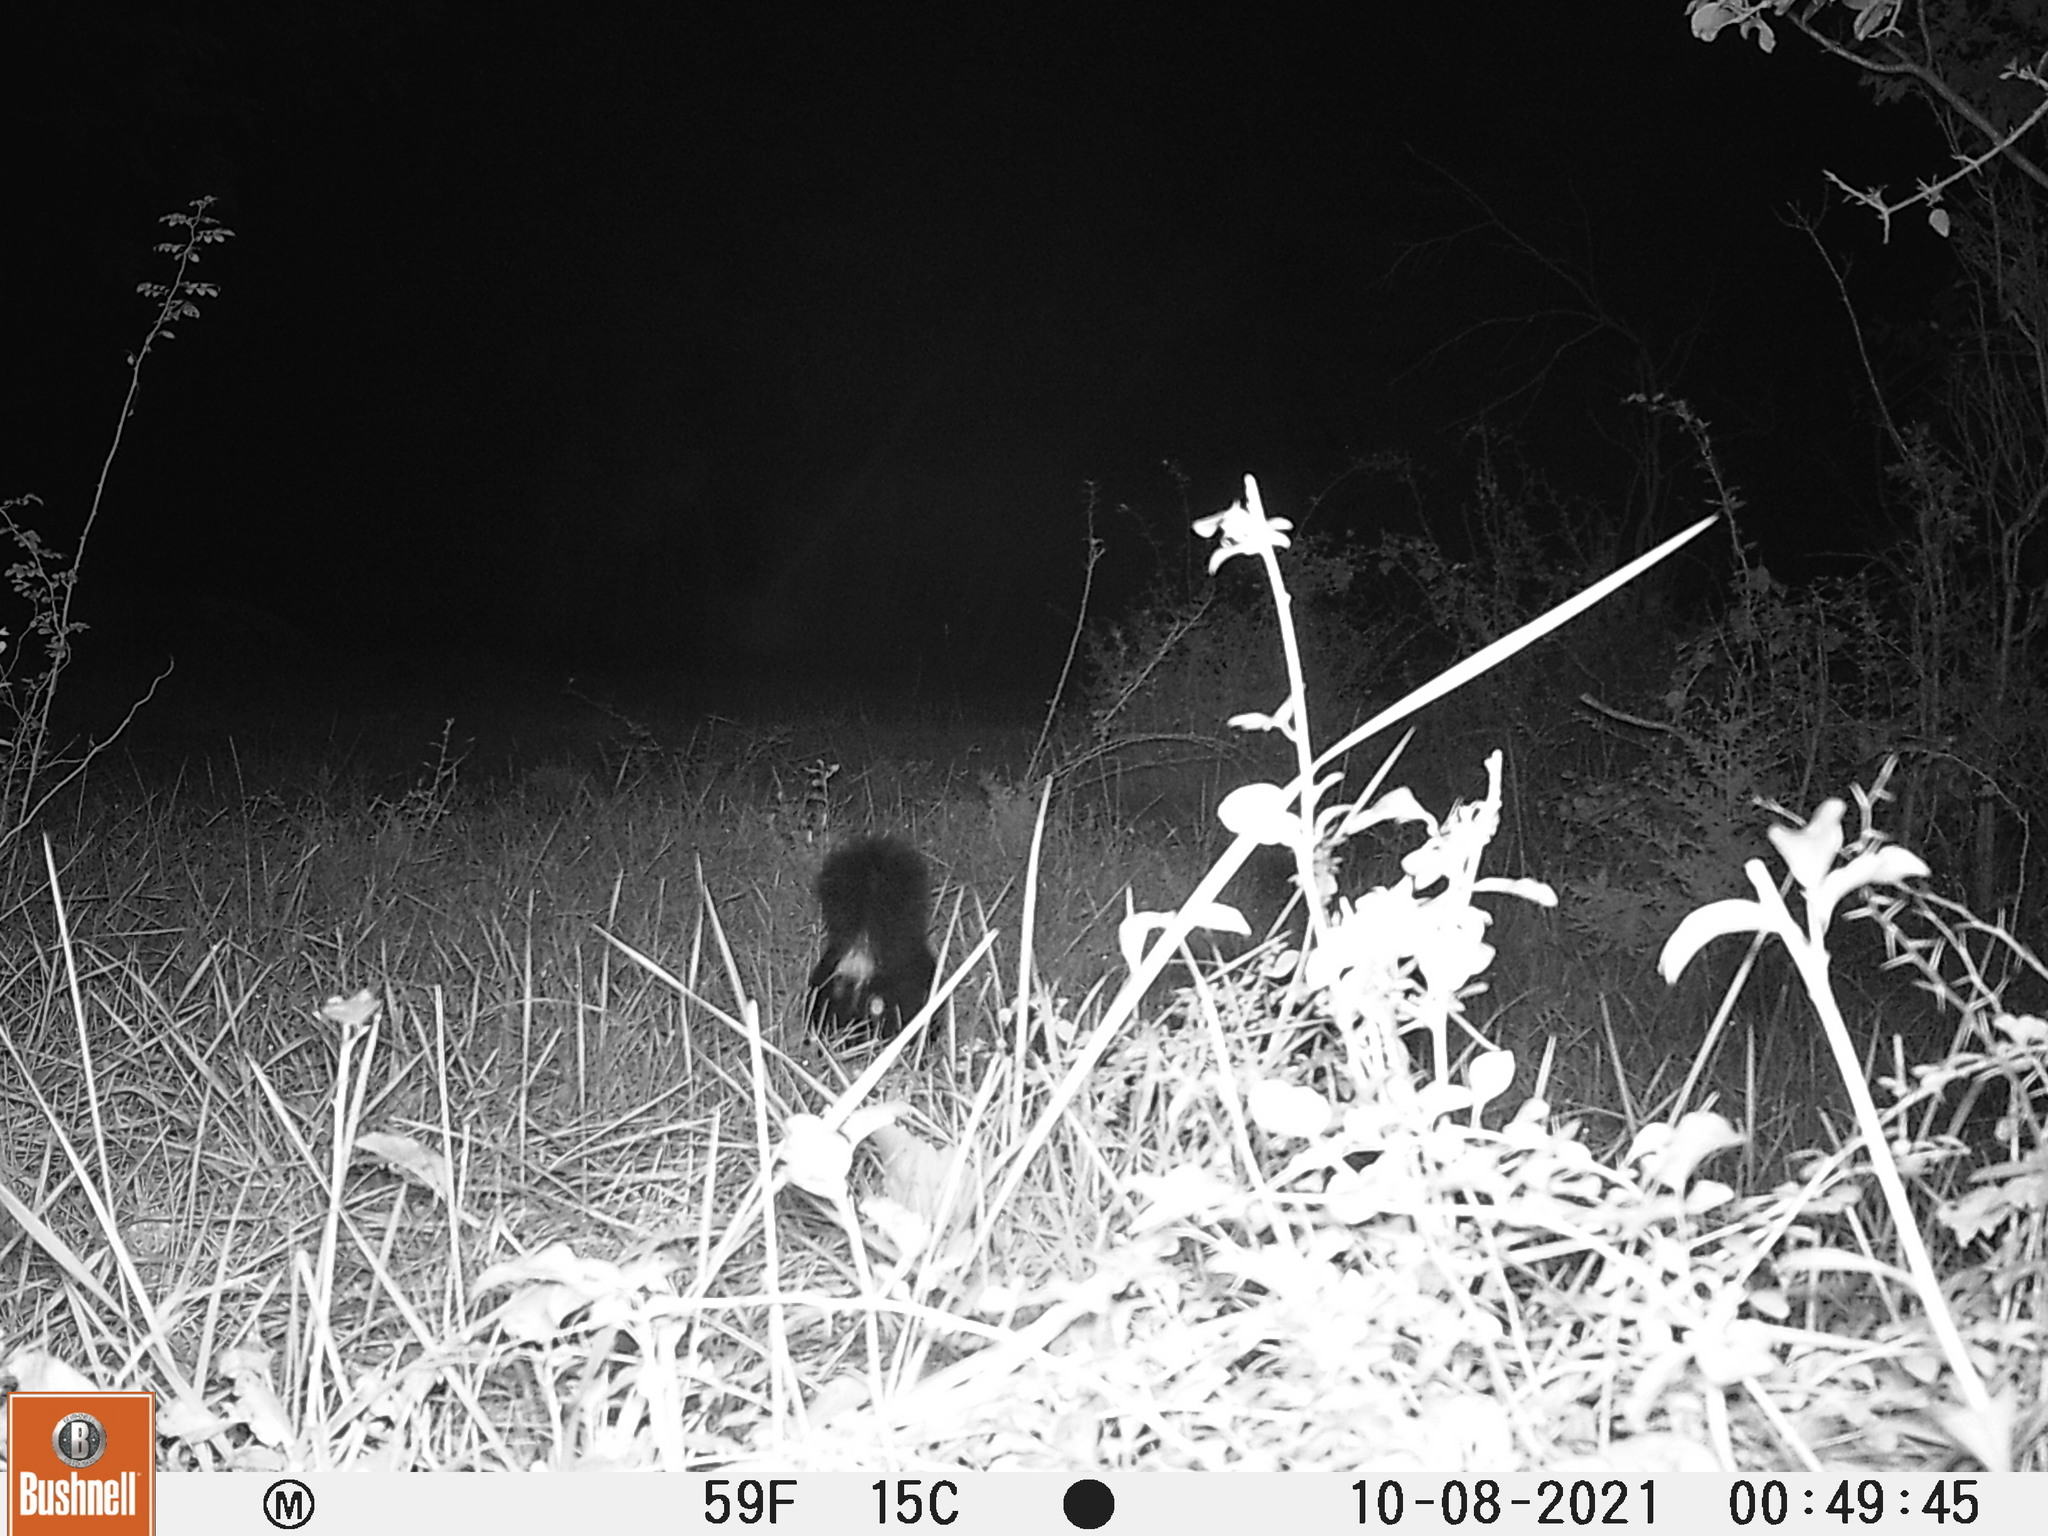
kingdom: Animalia
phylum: Chordata
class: Mammalia
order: Carnivora
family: Mephitidae
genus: Mephitis
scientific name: Mephitis mephitis
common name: Striped skunk
